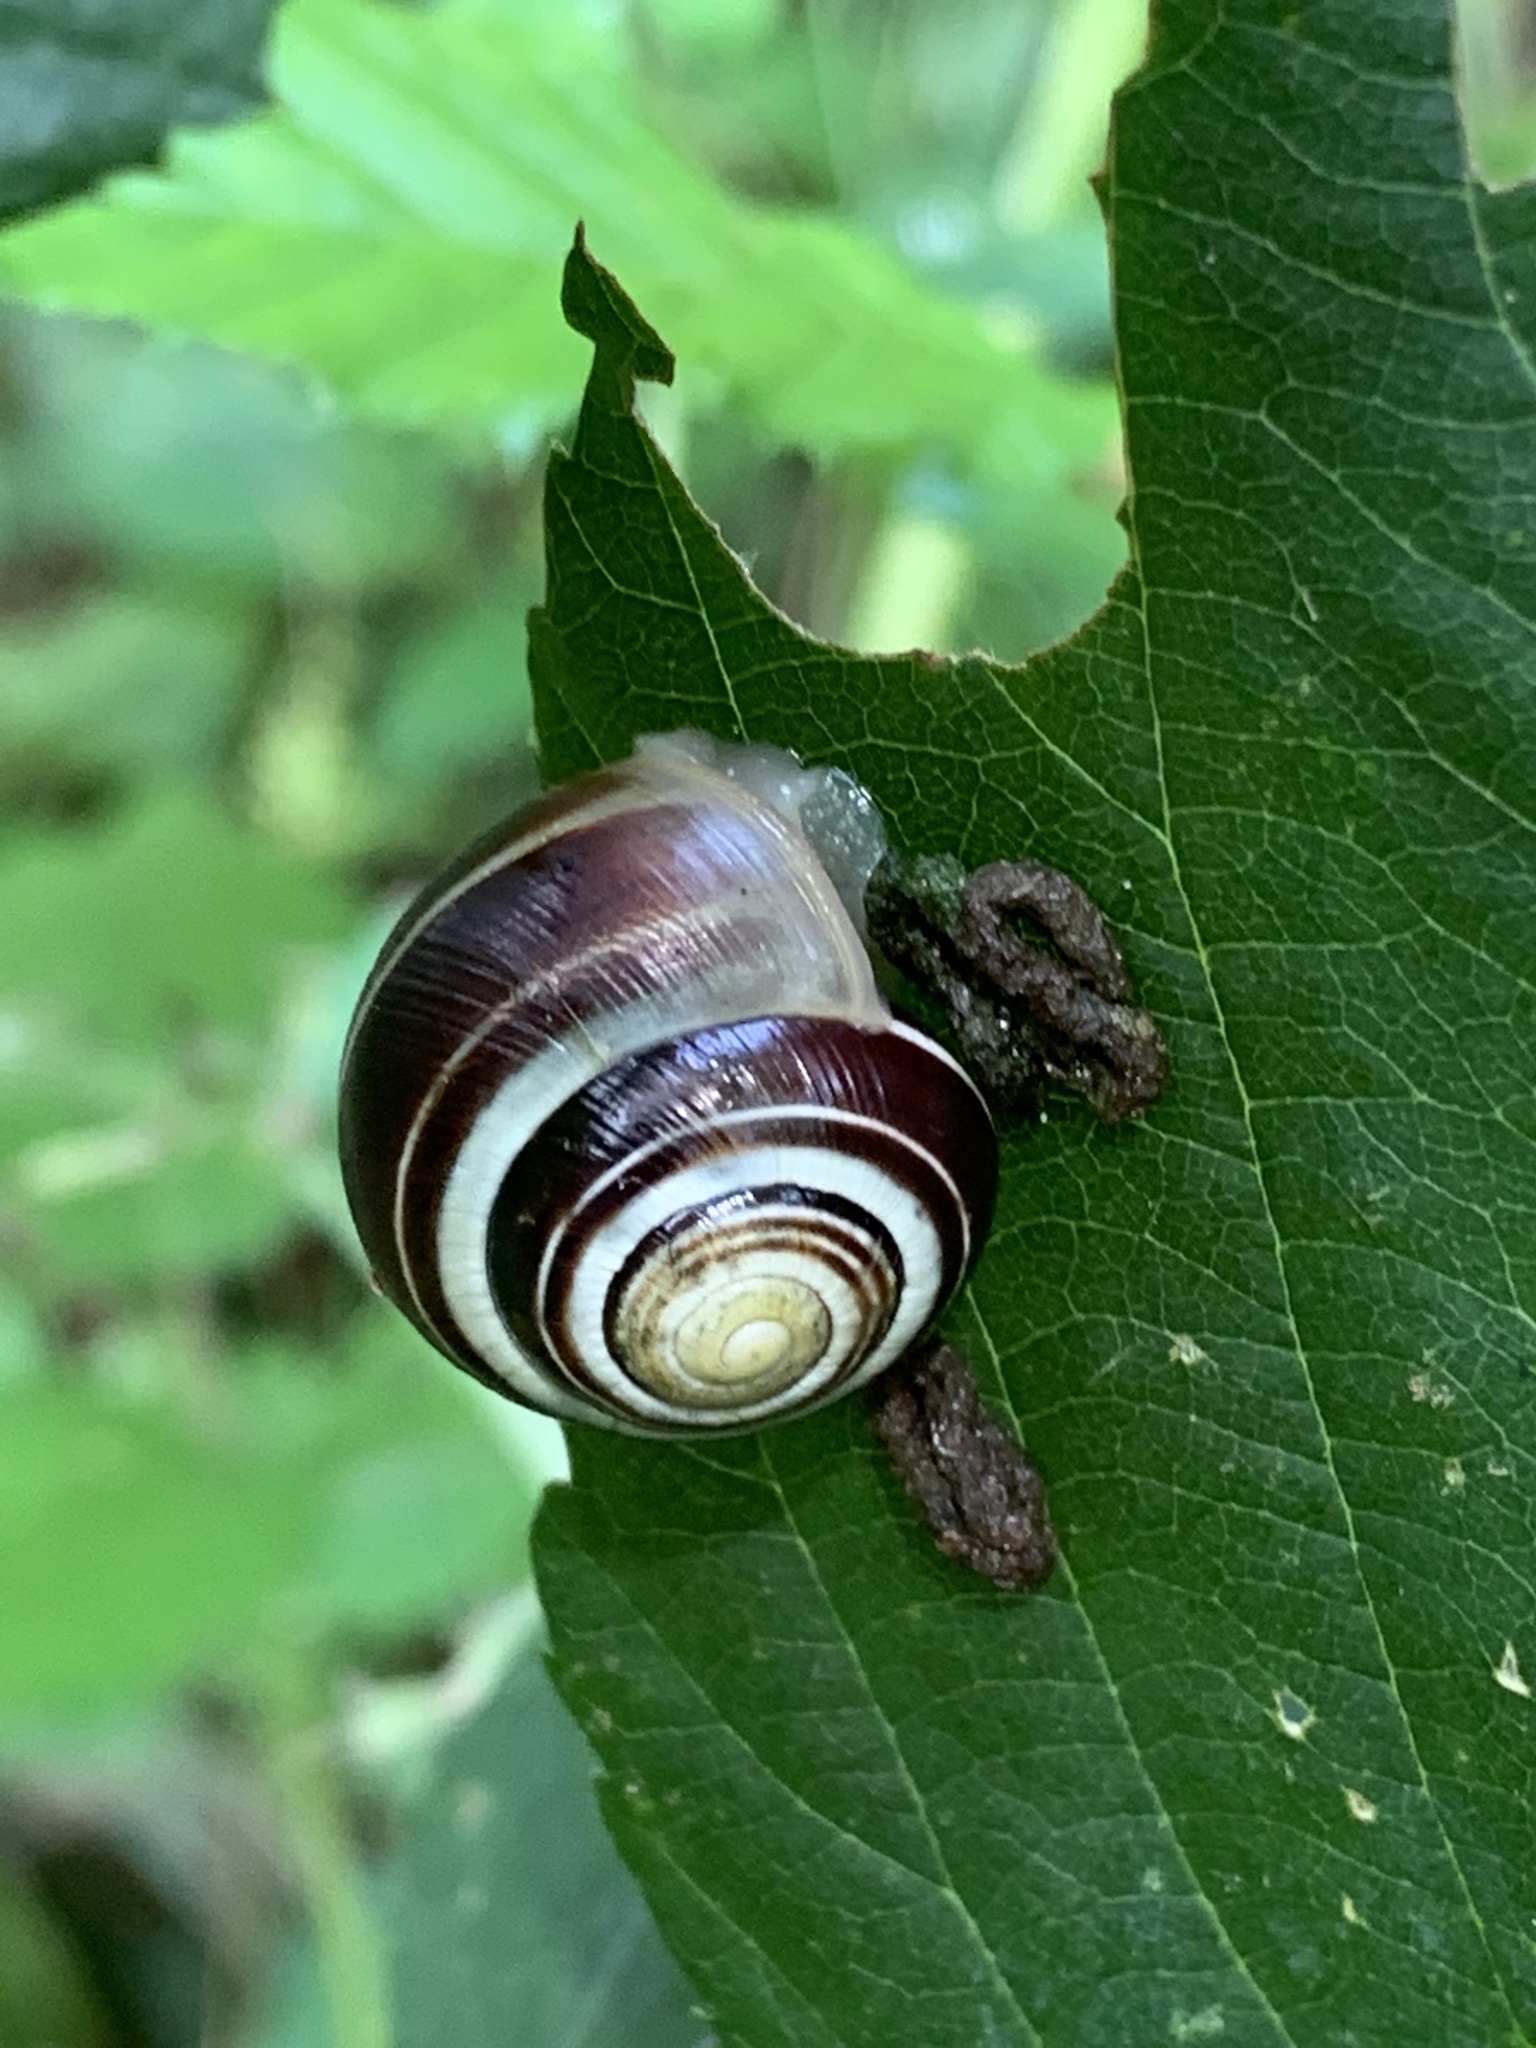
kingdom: Animalia
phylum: Mollusca
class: Gastropoda
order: Stylommatophora
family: Helicidae
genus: Cepaea
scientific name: Cepaea
